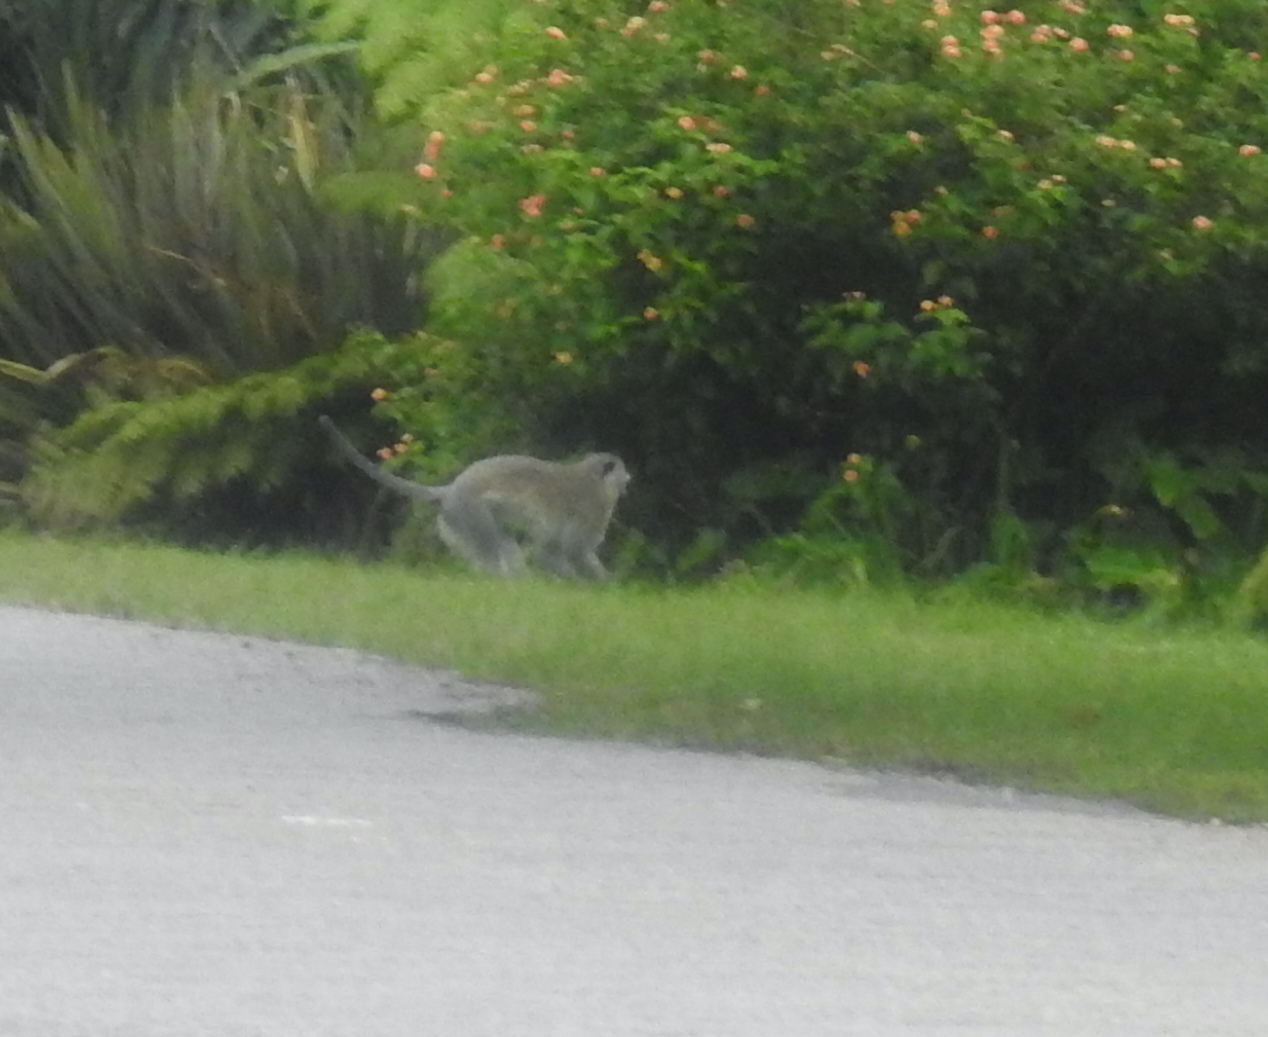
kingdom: Animalia
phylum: Chordata
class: Mammalia
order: Primates
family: Cercopithecidae
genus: Chlorocebus
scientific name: Chlorocebus pygerythrus
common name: Vervet monkey
